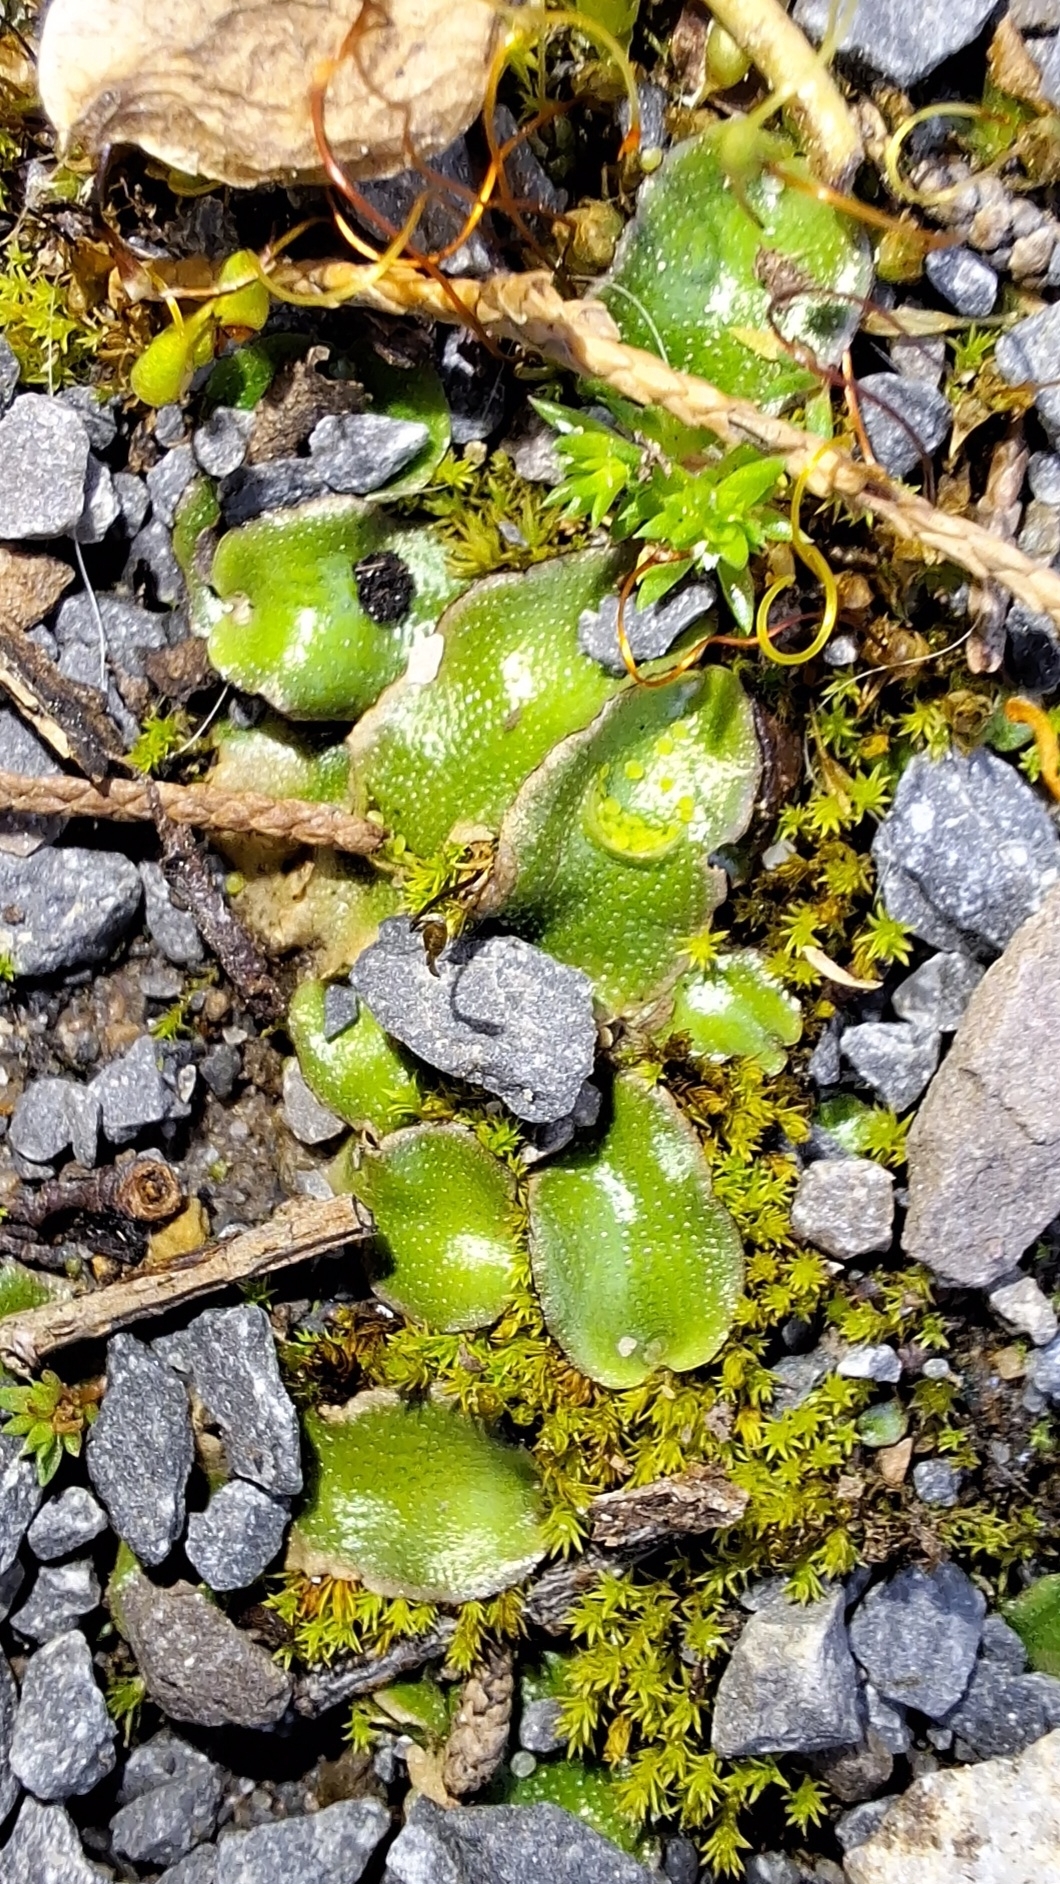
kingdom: Plantae
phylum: Marchantiophyta
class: Marchantiopsida
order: Lunulariales
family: Lunulariaceae
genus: Lunularia
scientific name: Lunularia cruciata
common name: Crescent-cup liverwort
